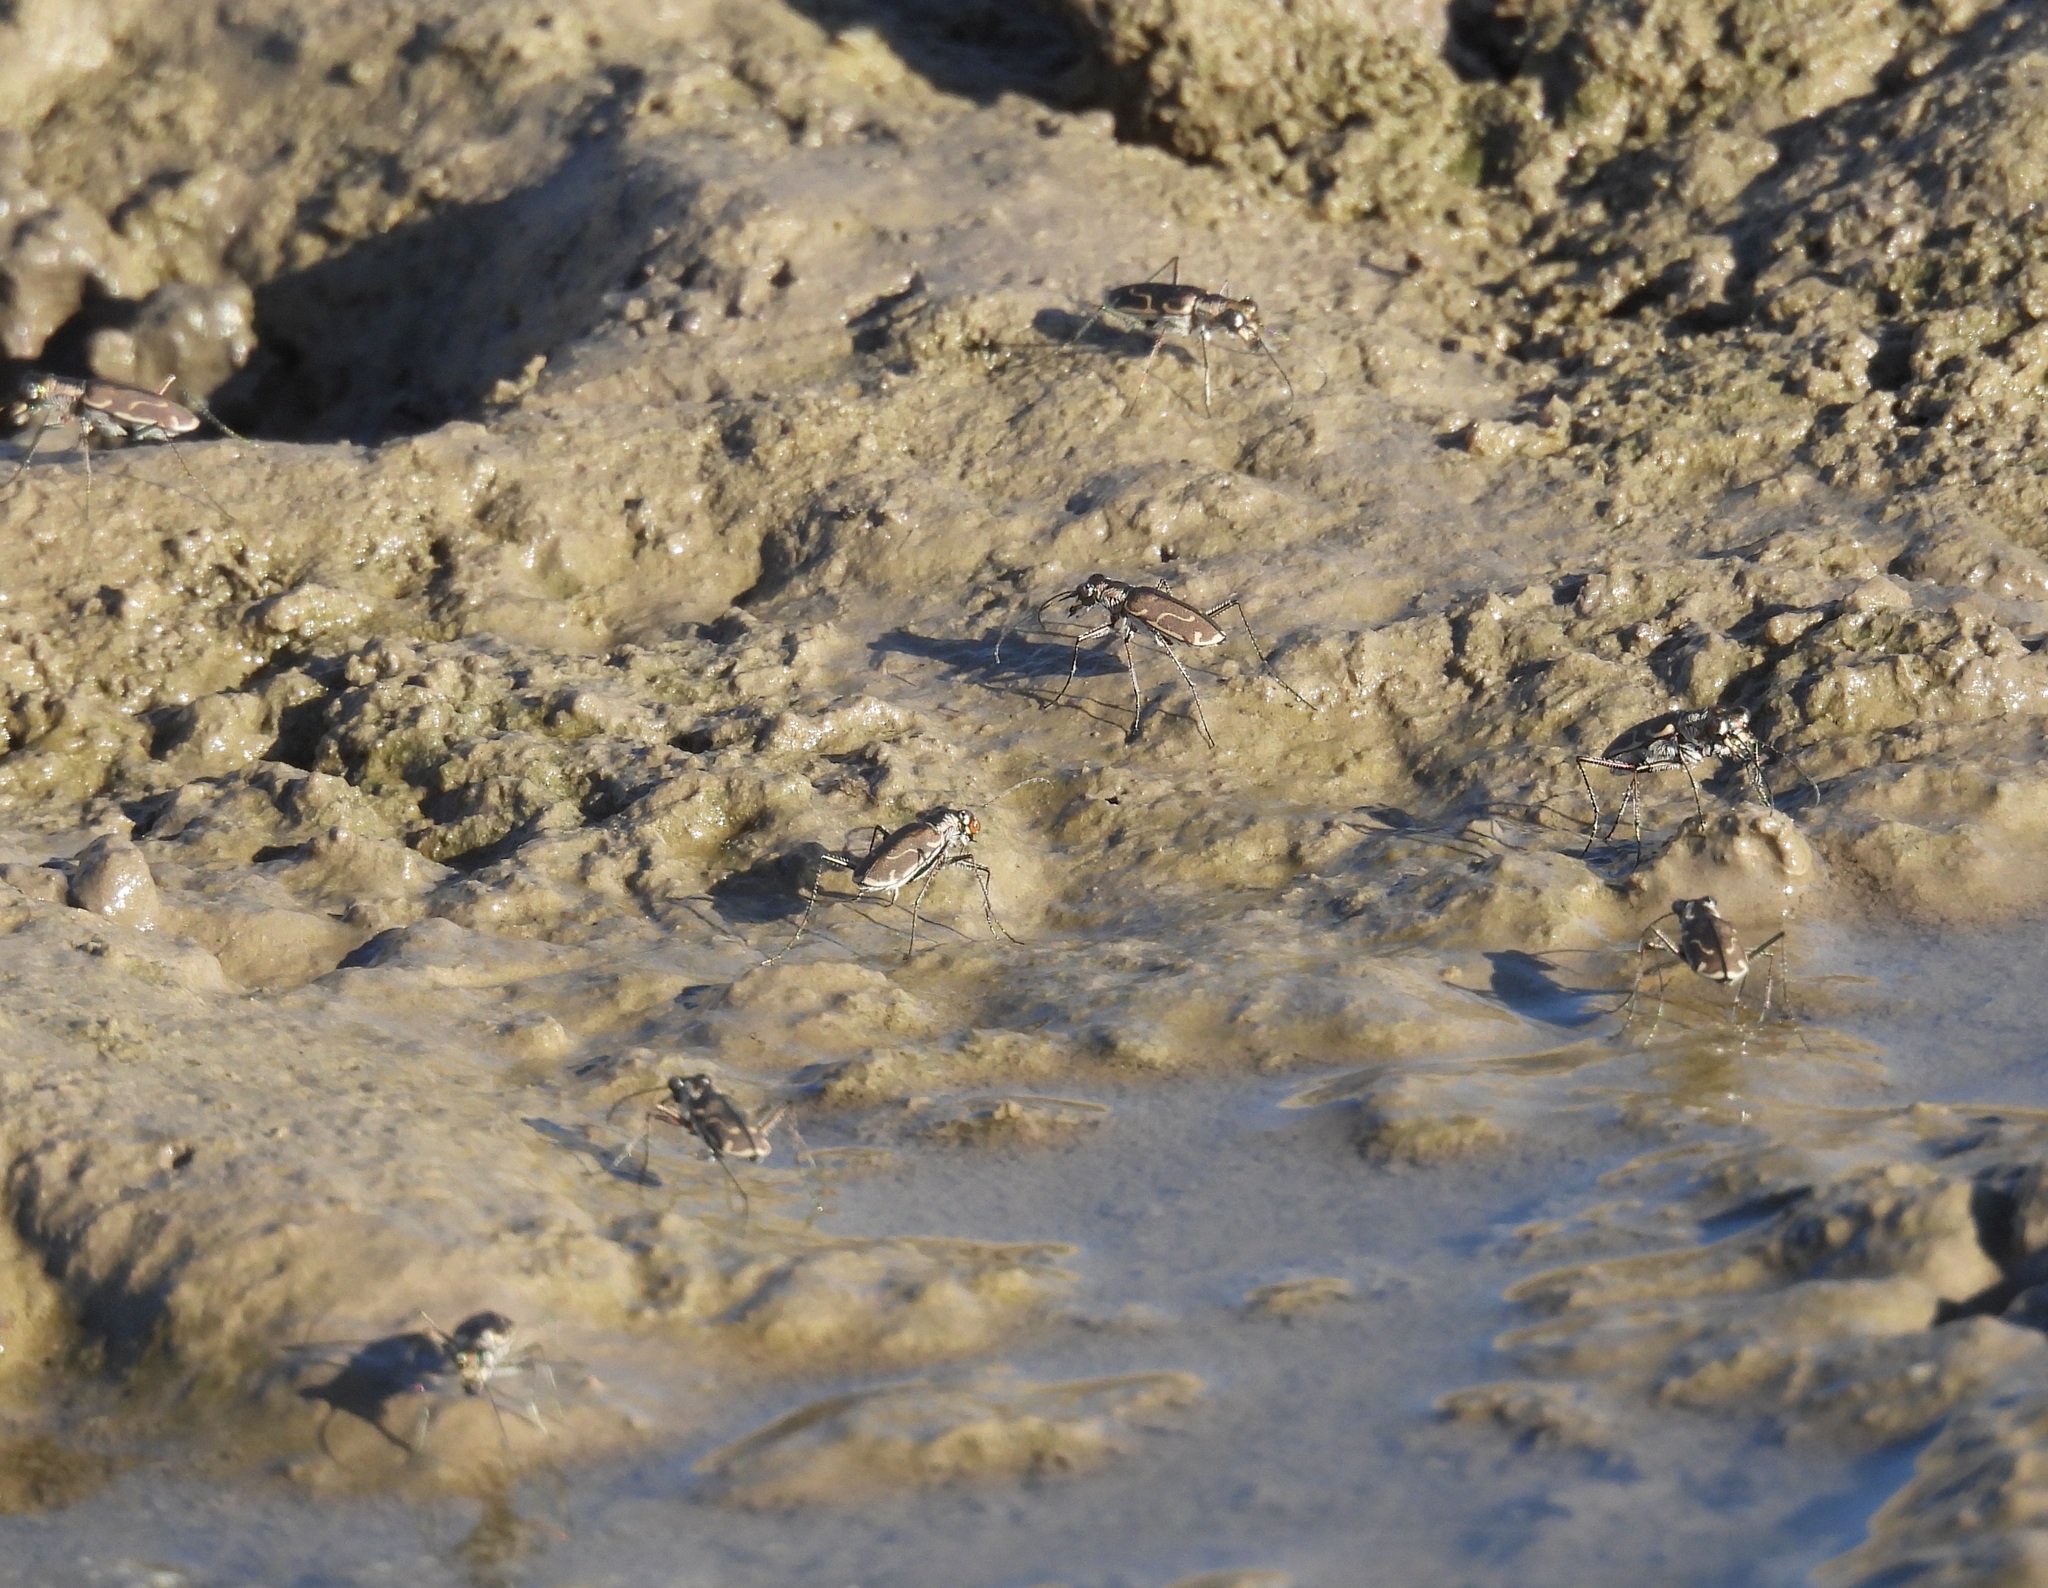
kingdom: Animalia
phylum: Arthropoda
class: Insecta
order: Coleoptera
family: Carabidae
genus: Cicindela
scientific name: Cicindela tenuisignata
